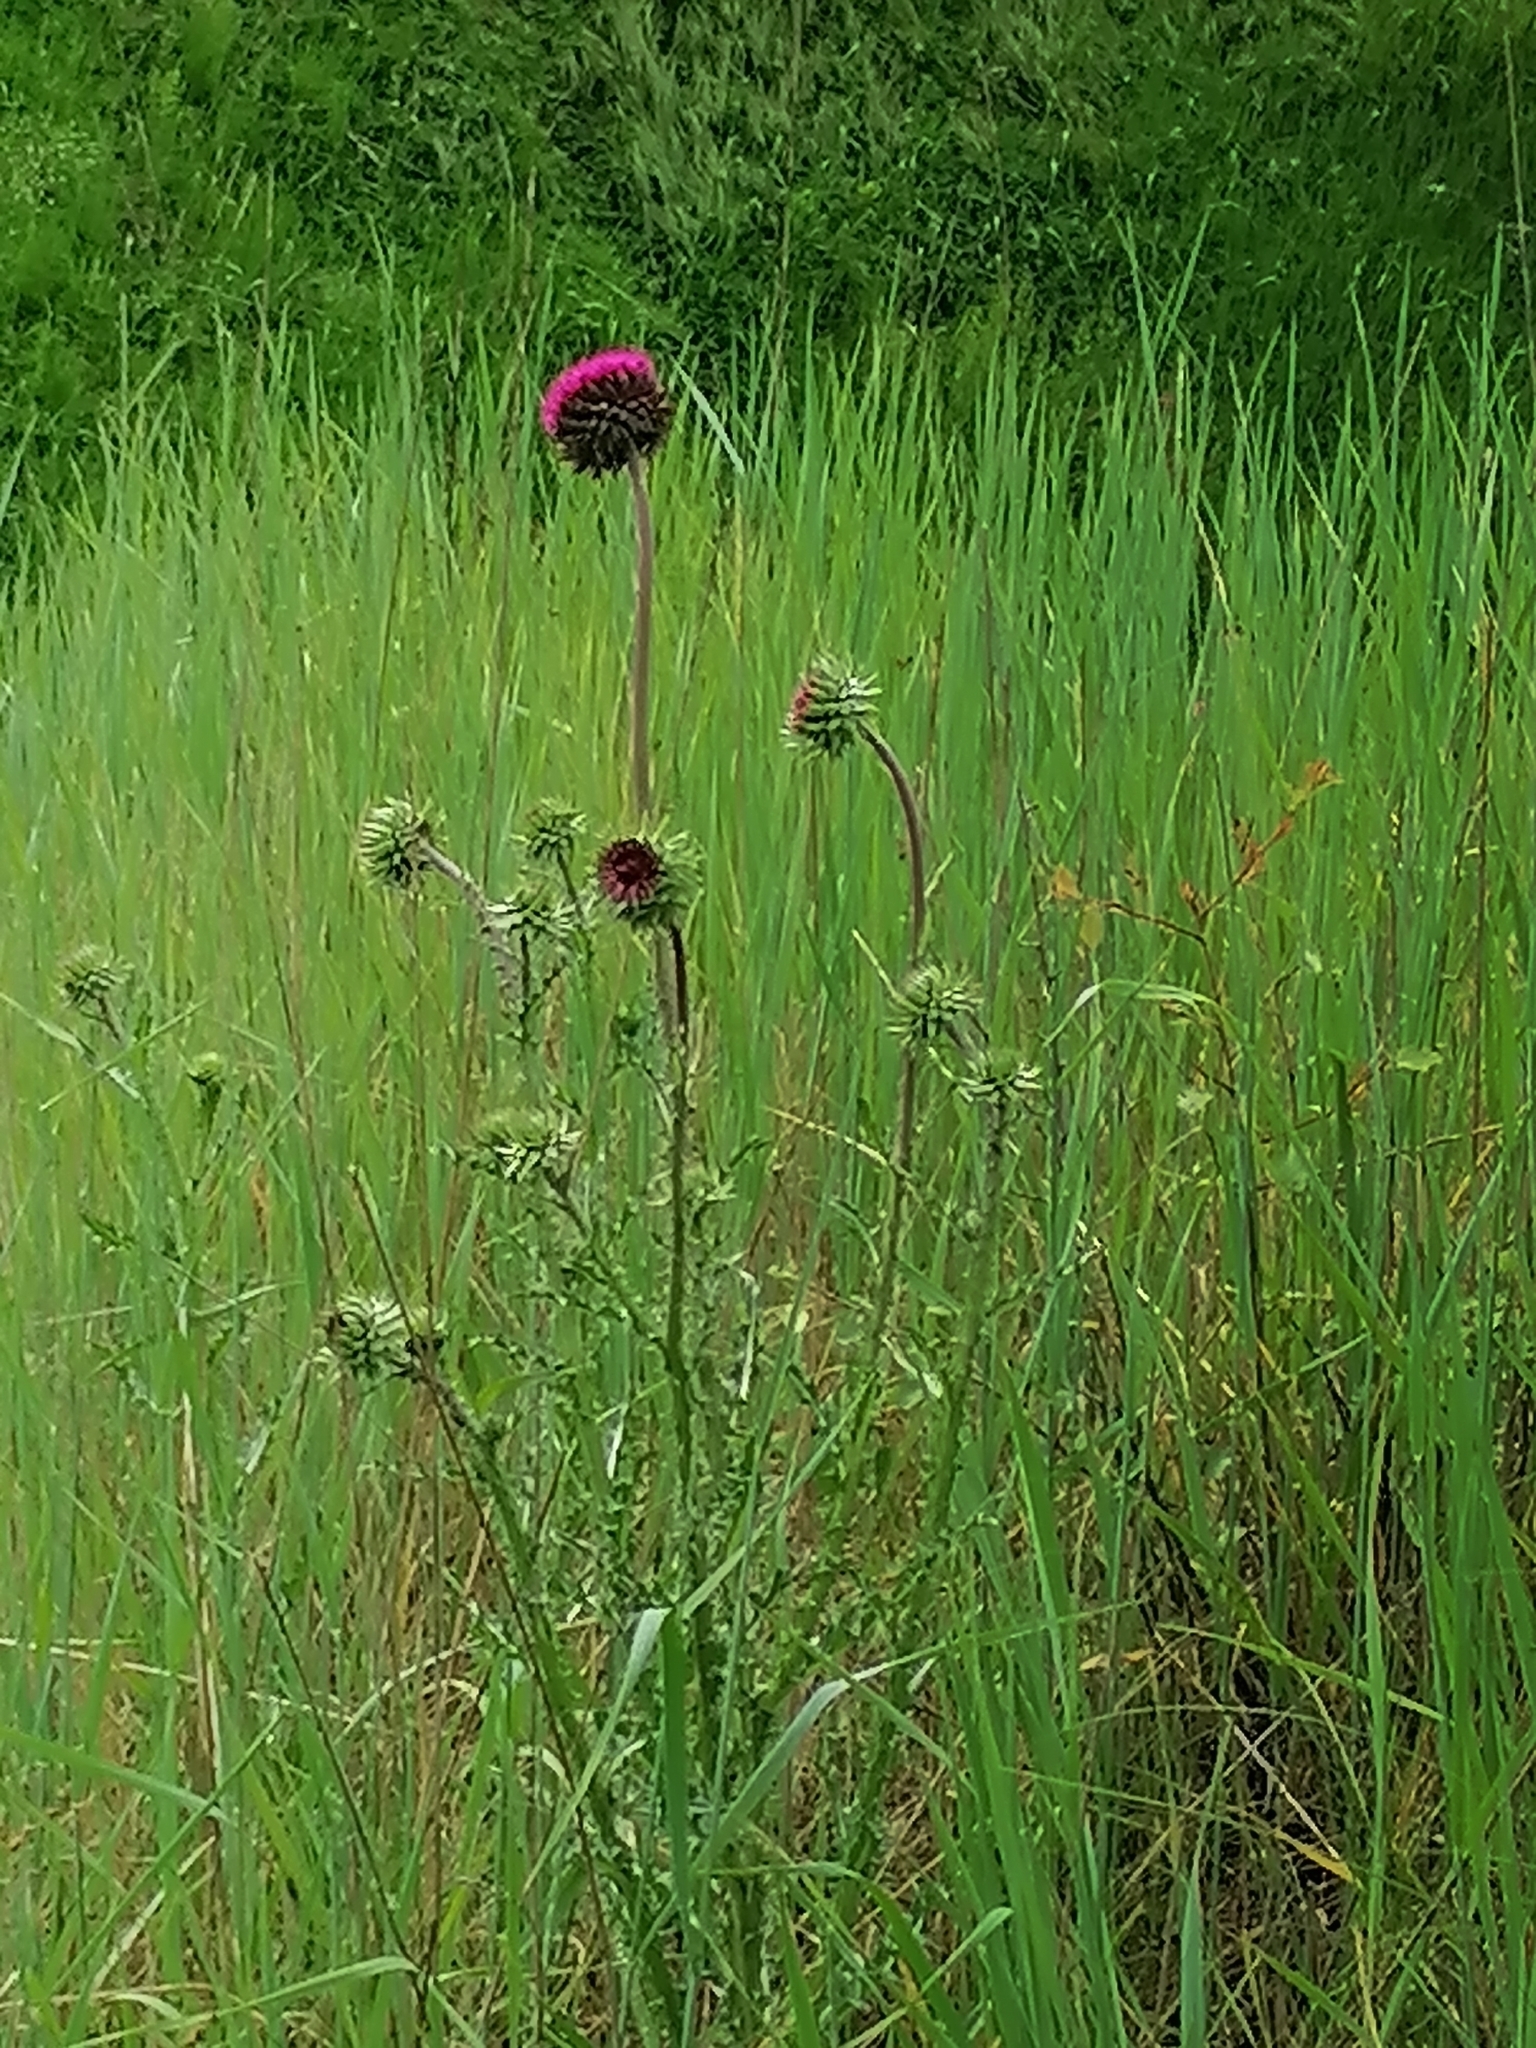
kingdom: Plantae
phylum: Tracheophyta
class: Magnoliopsida
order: Asterales
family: Asteraceae
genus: Carduus
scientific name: Carduus nutans
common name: Musk thistle
